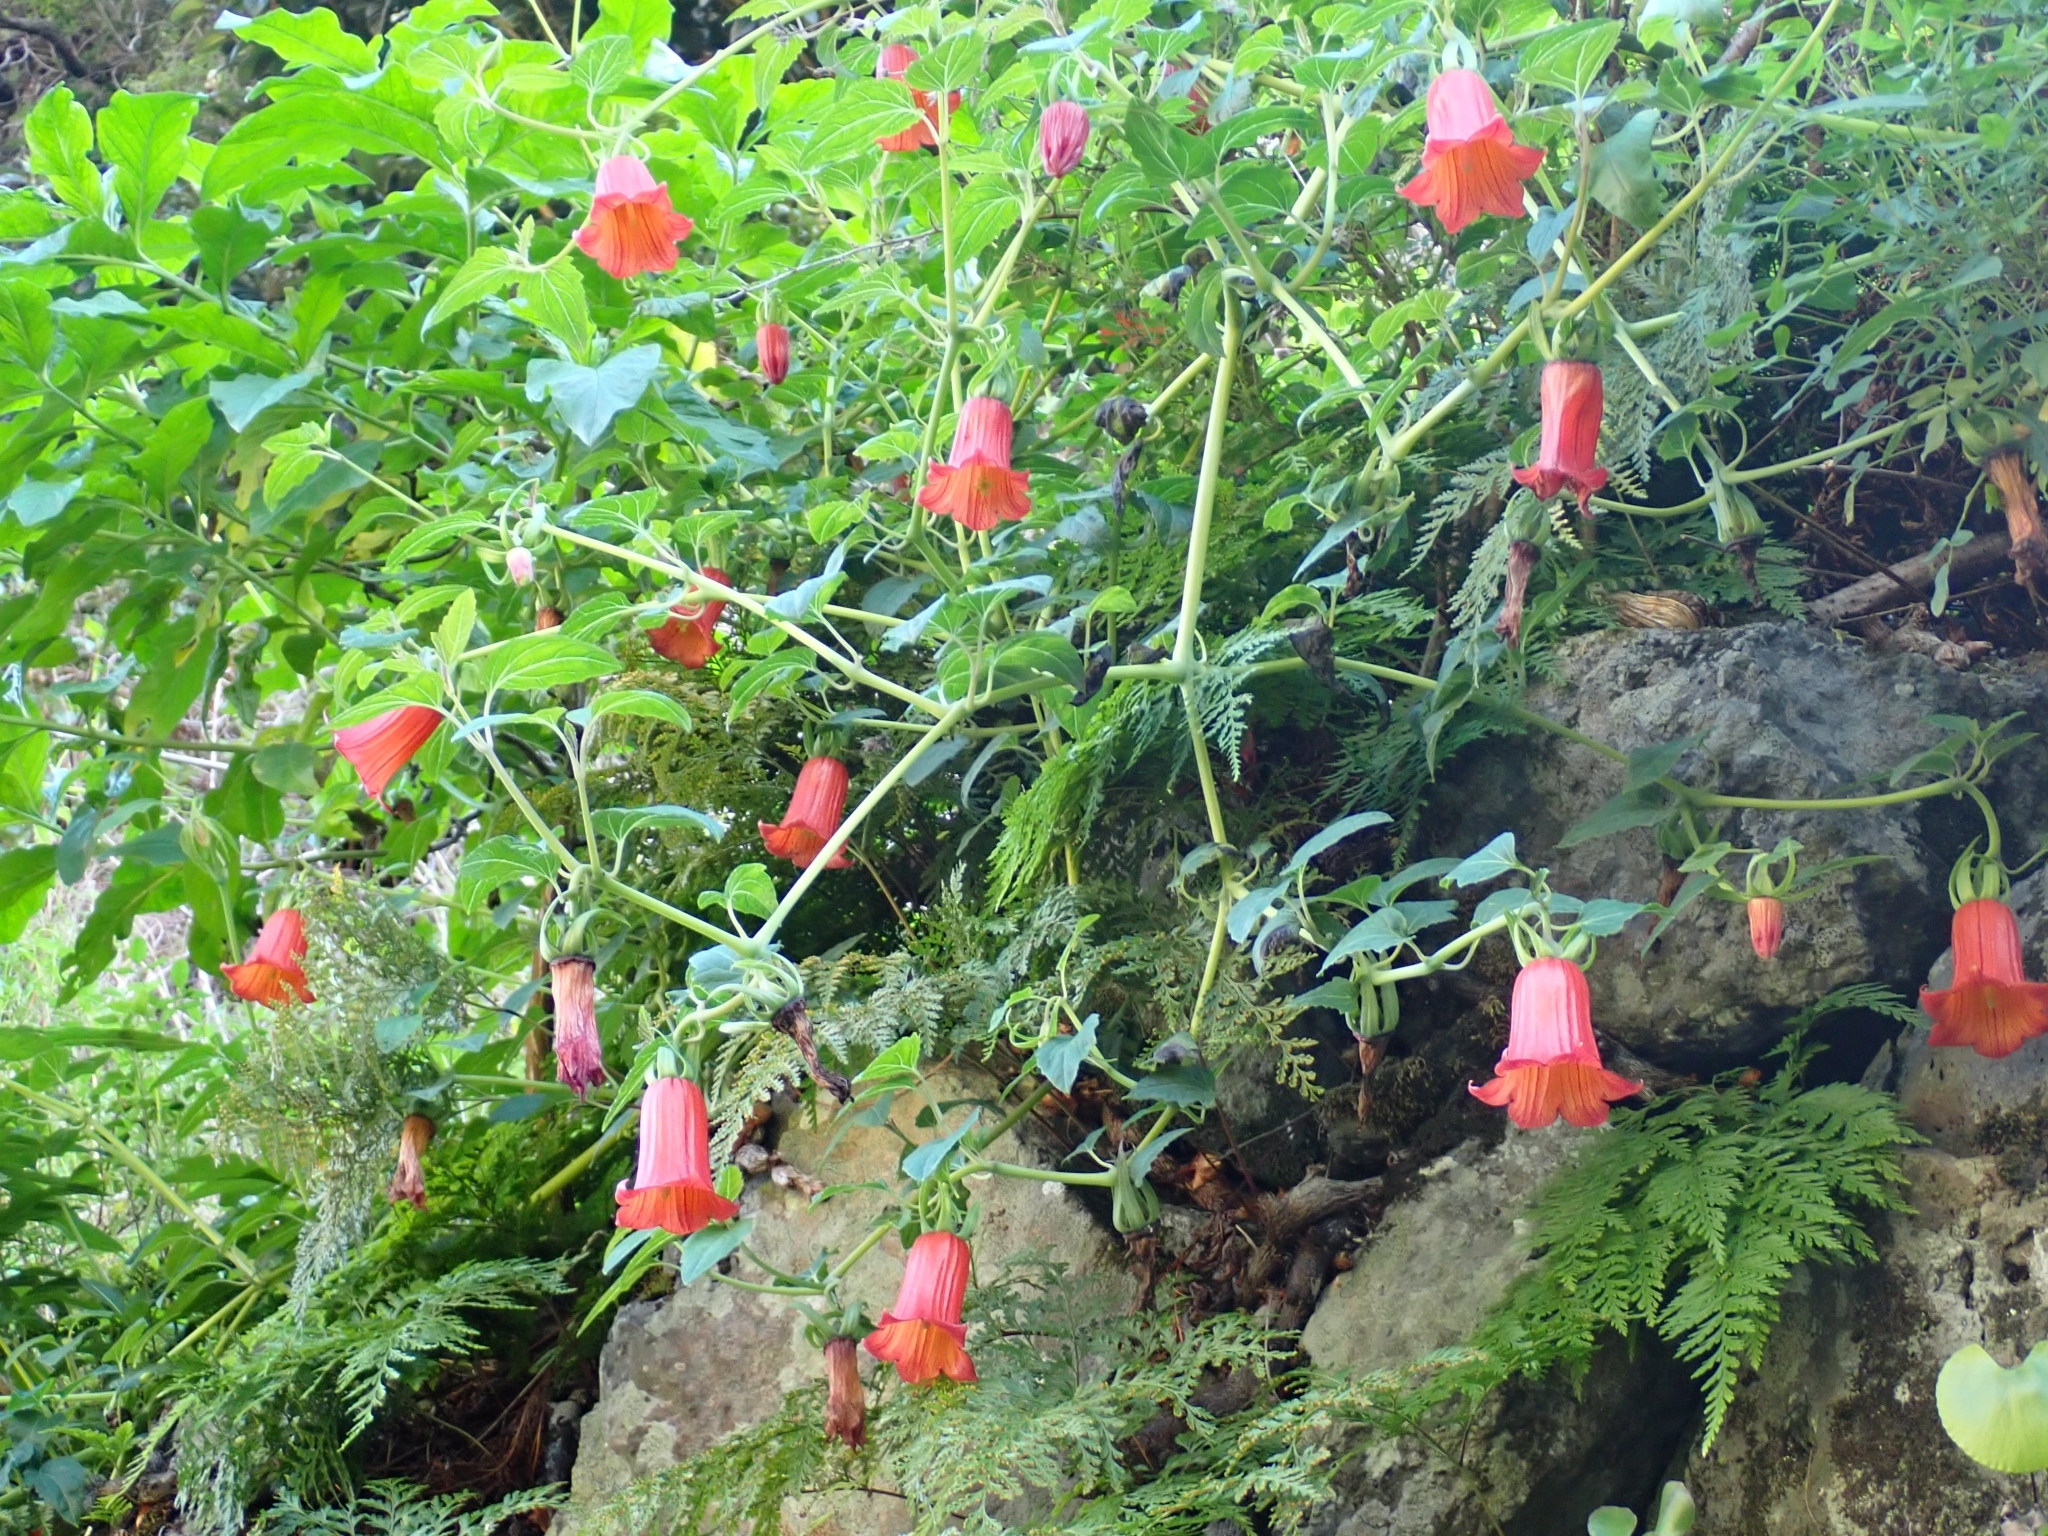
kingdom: Plantae
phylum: Tracheophyta
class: Magnoliopsida
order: Asterales
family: Campanulaceae
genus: Canarina
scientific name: Canarina canariensis
